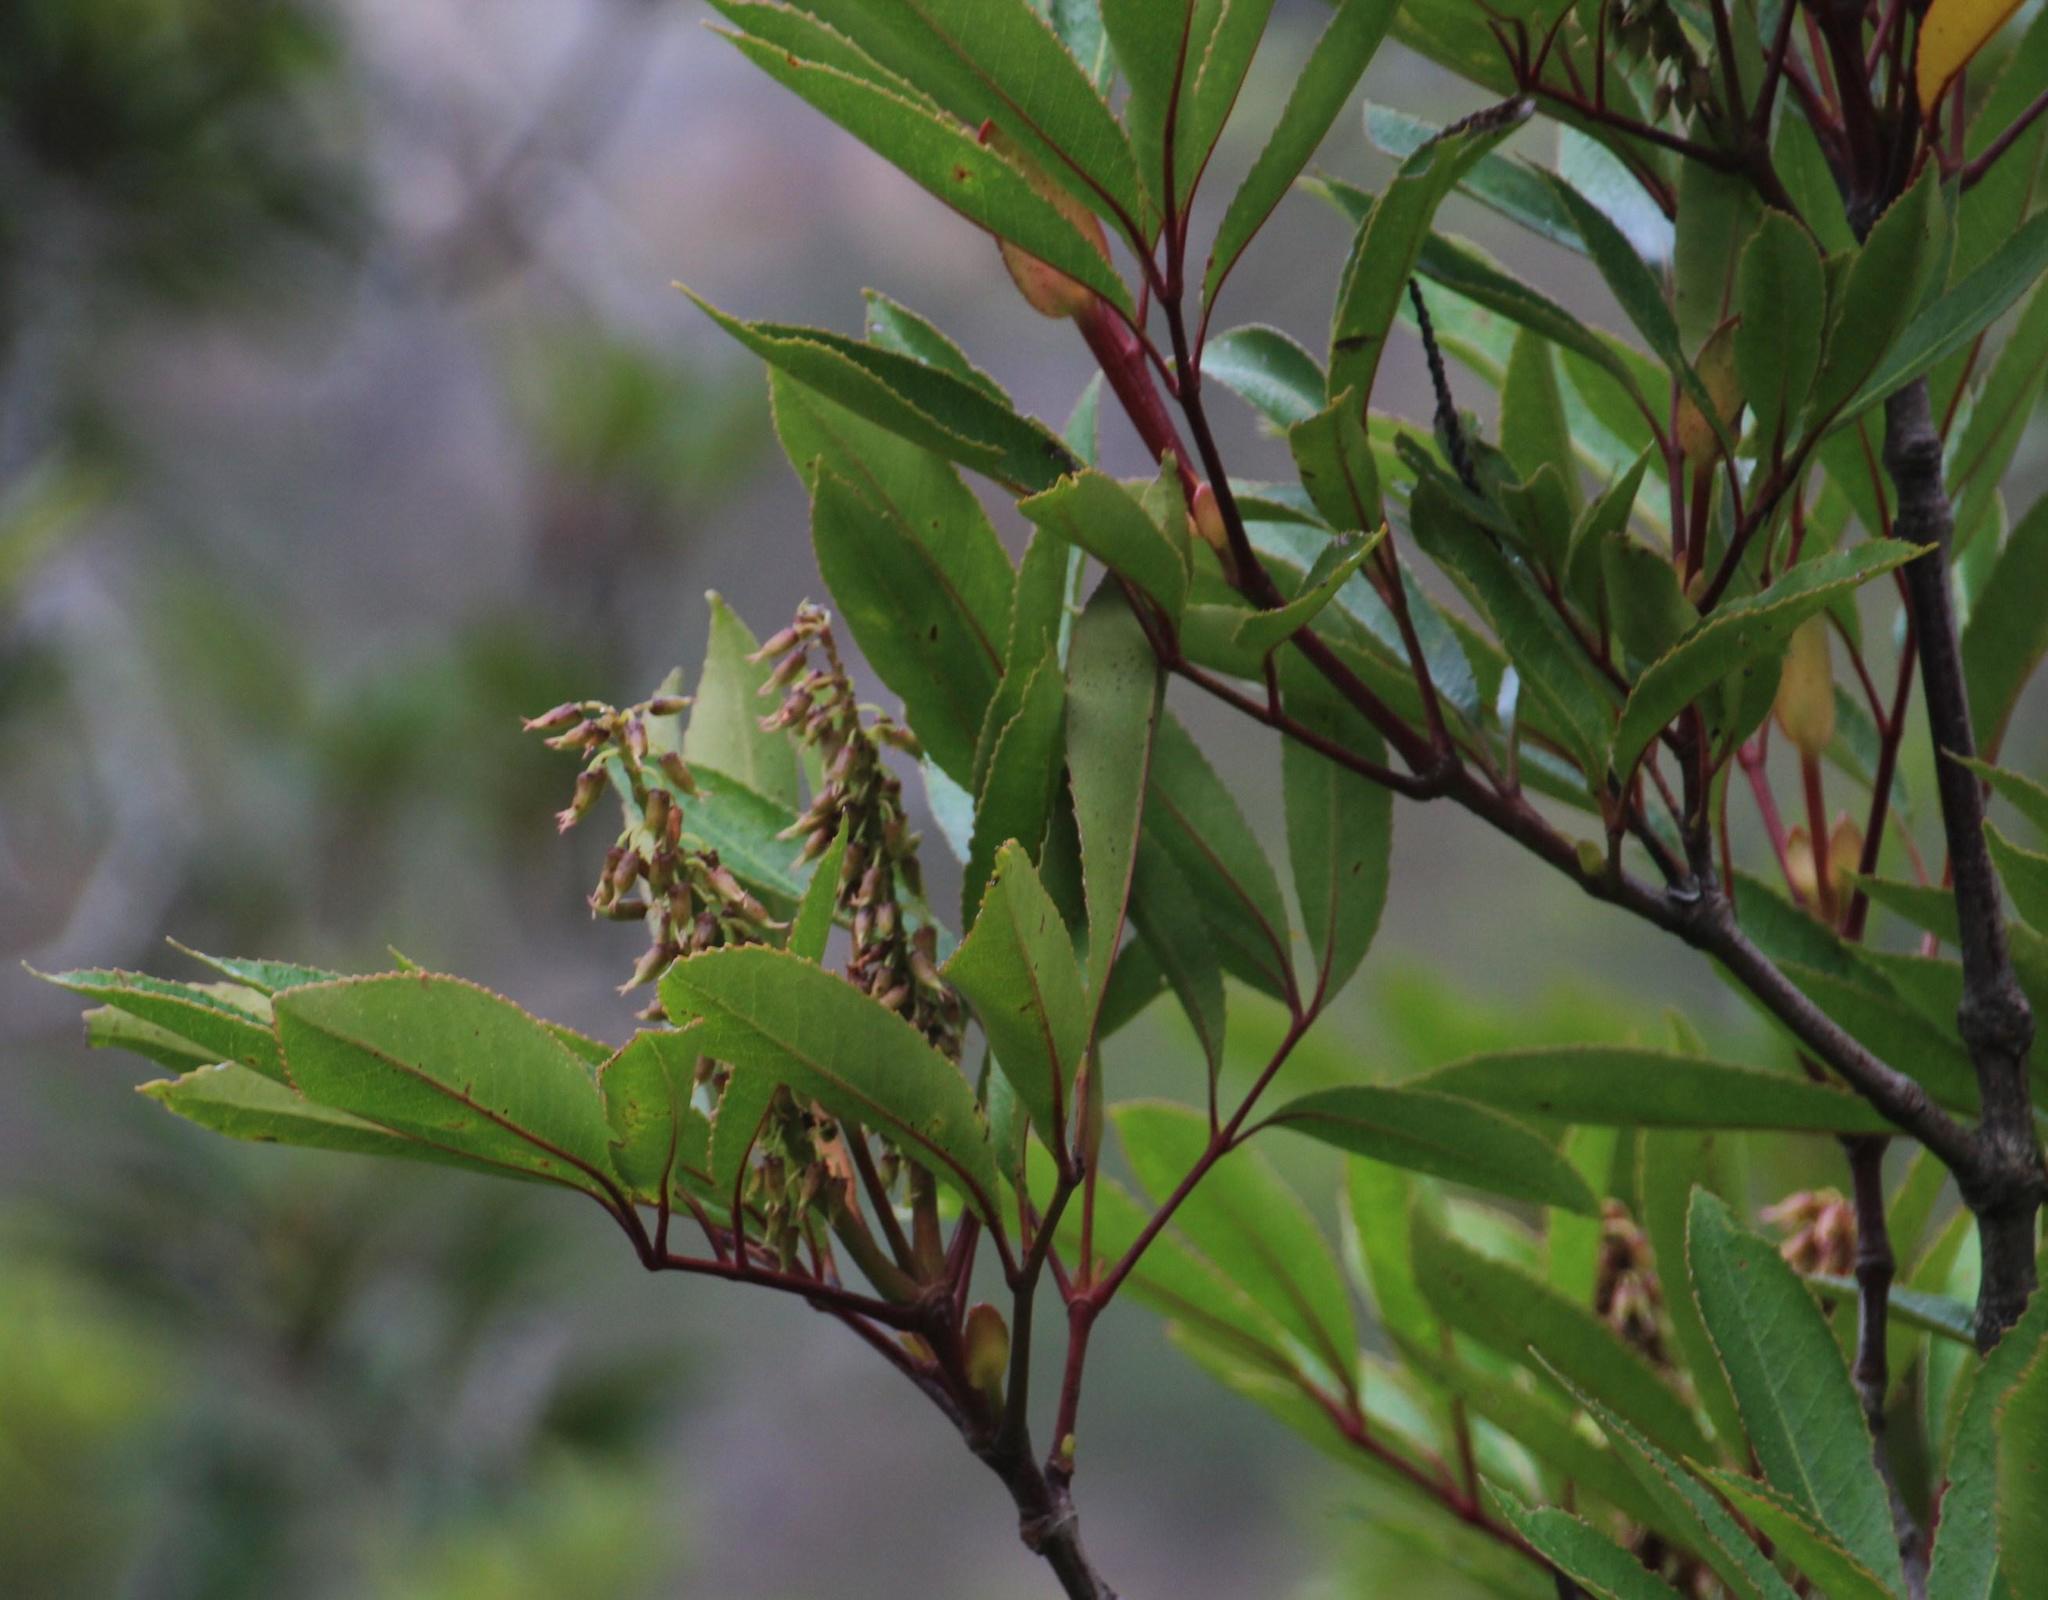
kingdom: Plantae
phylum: Tracheophyta
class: Magnoliopsida
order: Oxalidales
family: Cunoniaceae
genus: Cunonia
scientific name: Cunonia capensis
